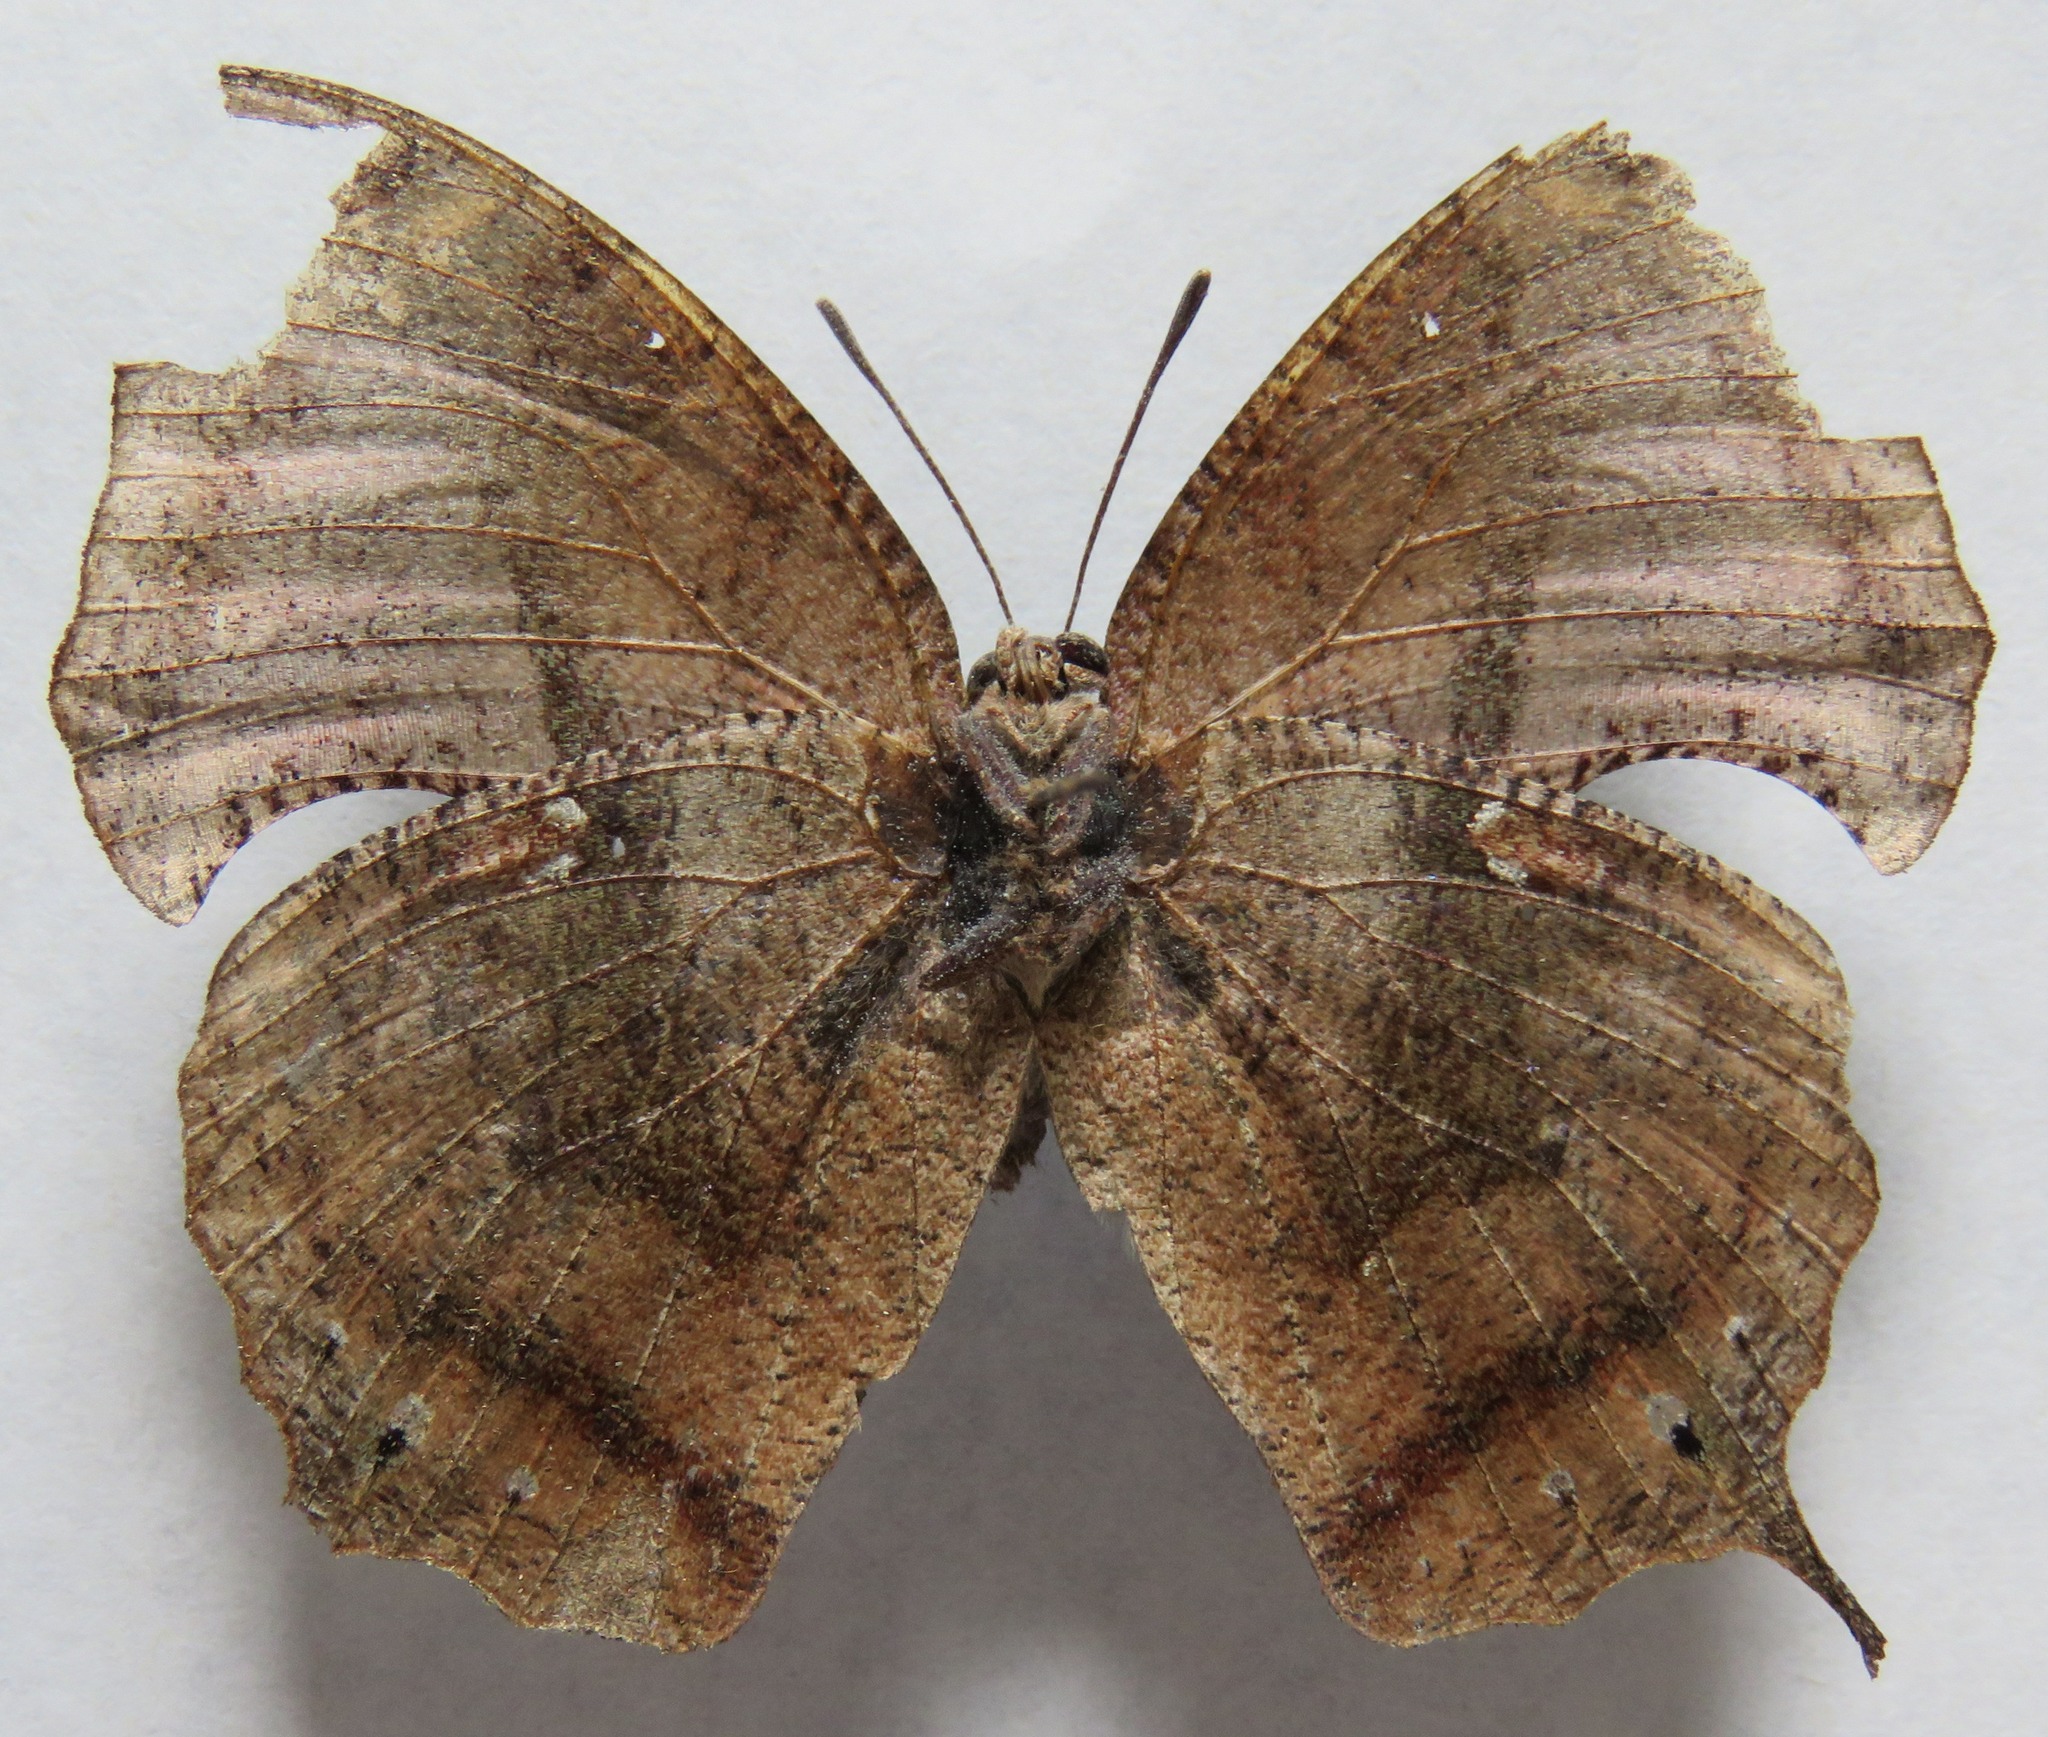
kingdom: Animalia
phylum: Arthropoda
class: Insecta
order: Lepidoptera
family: Nymphalidae
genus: Memphis
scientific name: Memphis moruus
